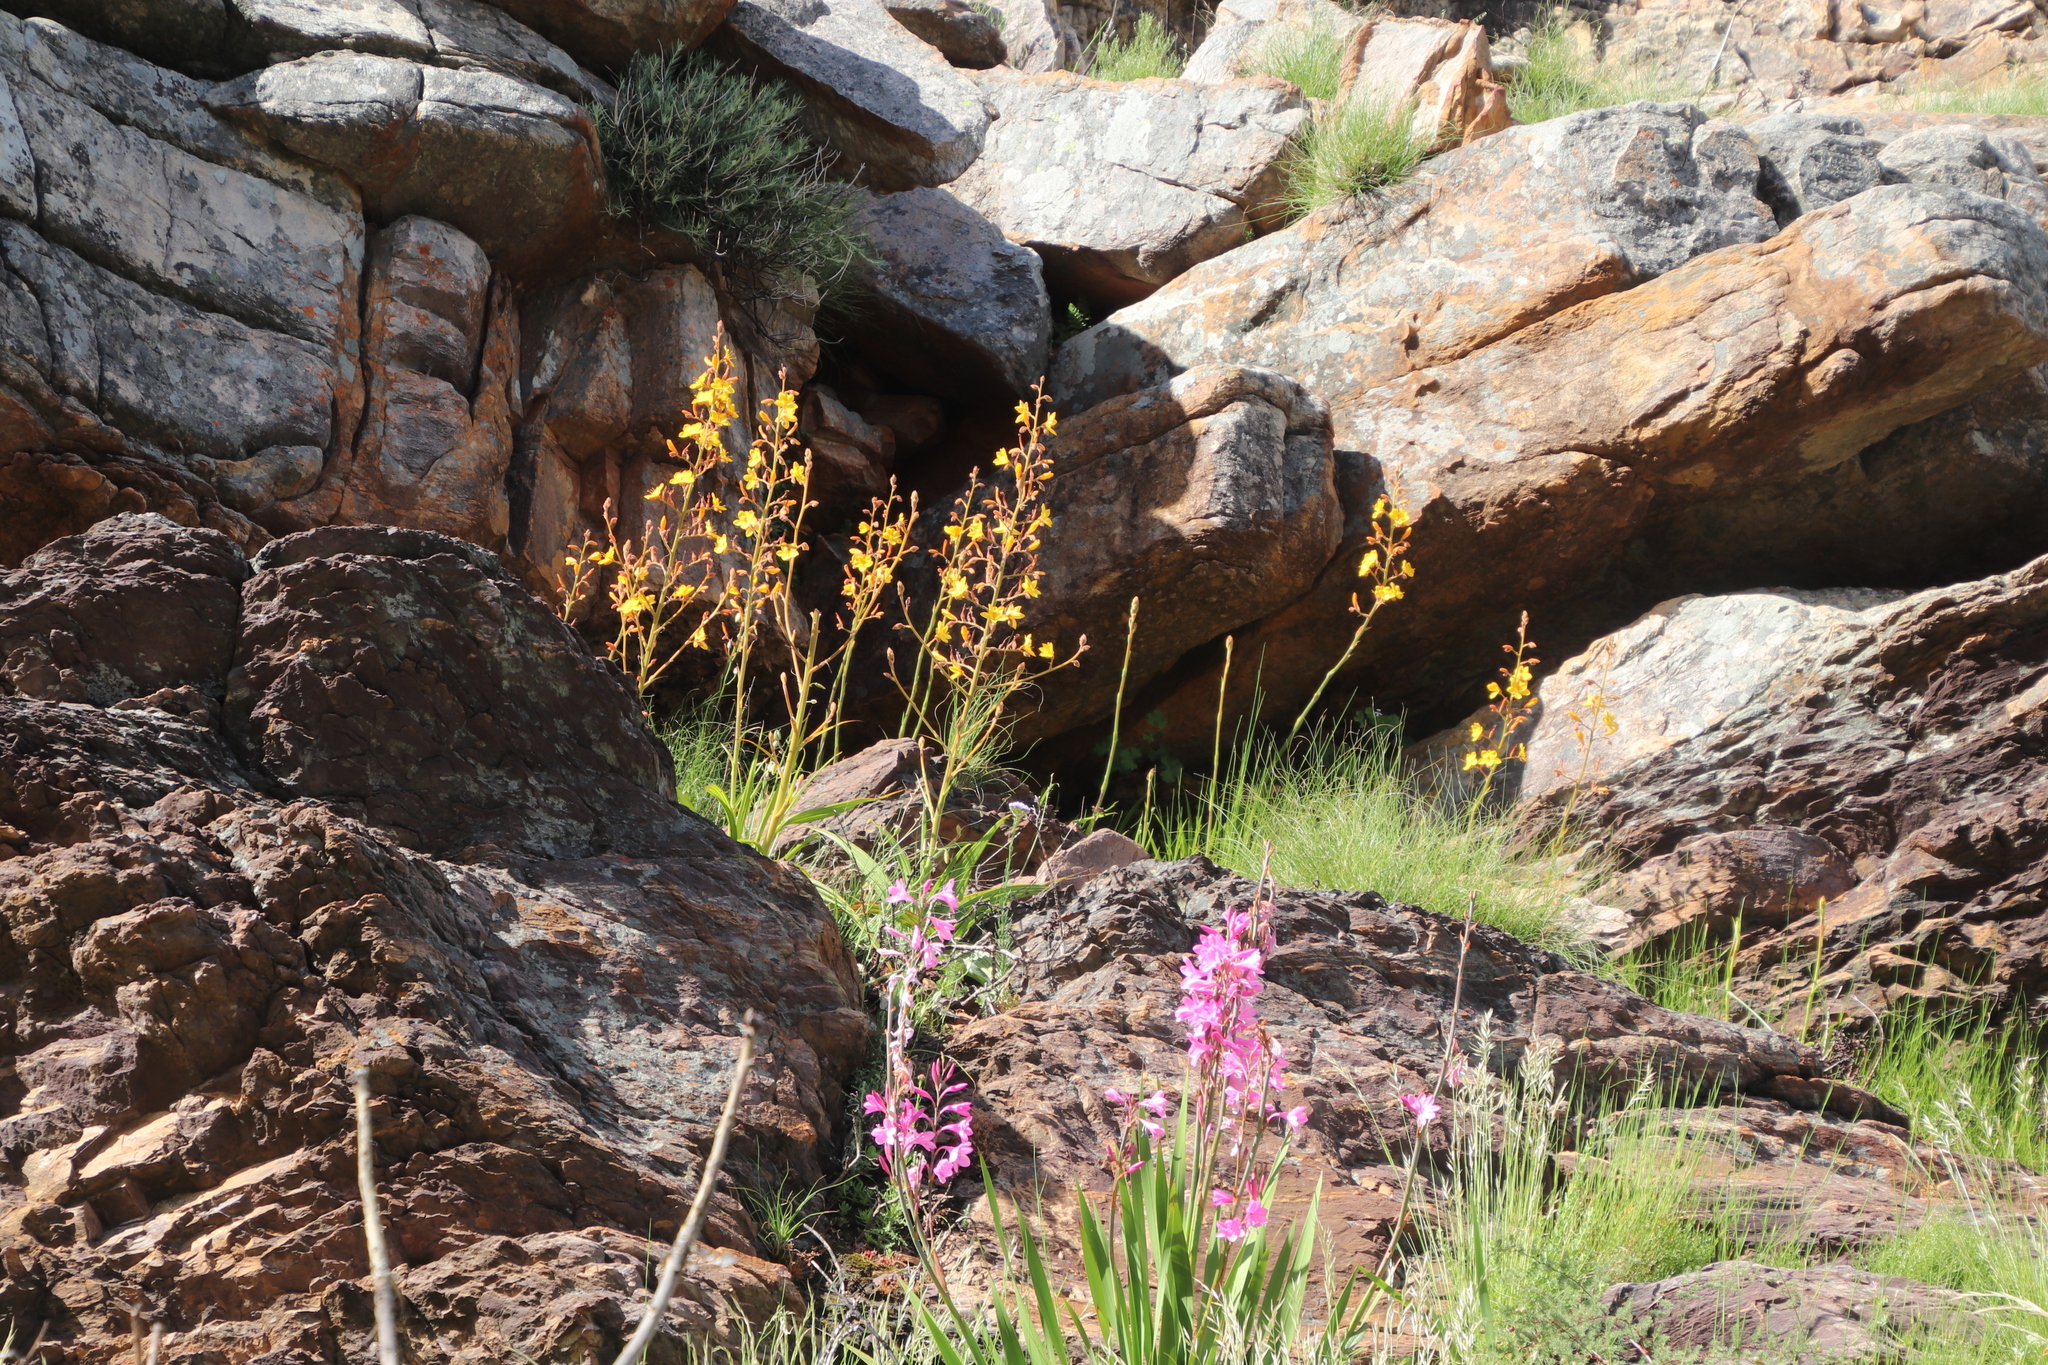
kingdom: Plantae
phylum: Tracheophyta
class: Liliopsida
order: Commelinales
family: Haemodoraceae
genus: Wachendorfia
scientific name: Wachendorfia paniculata
